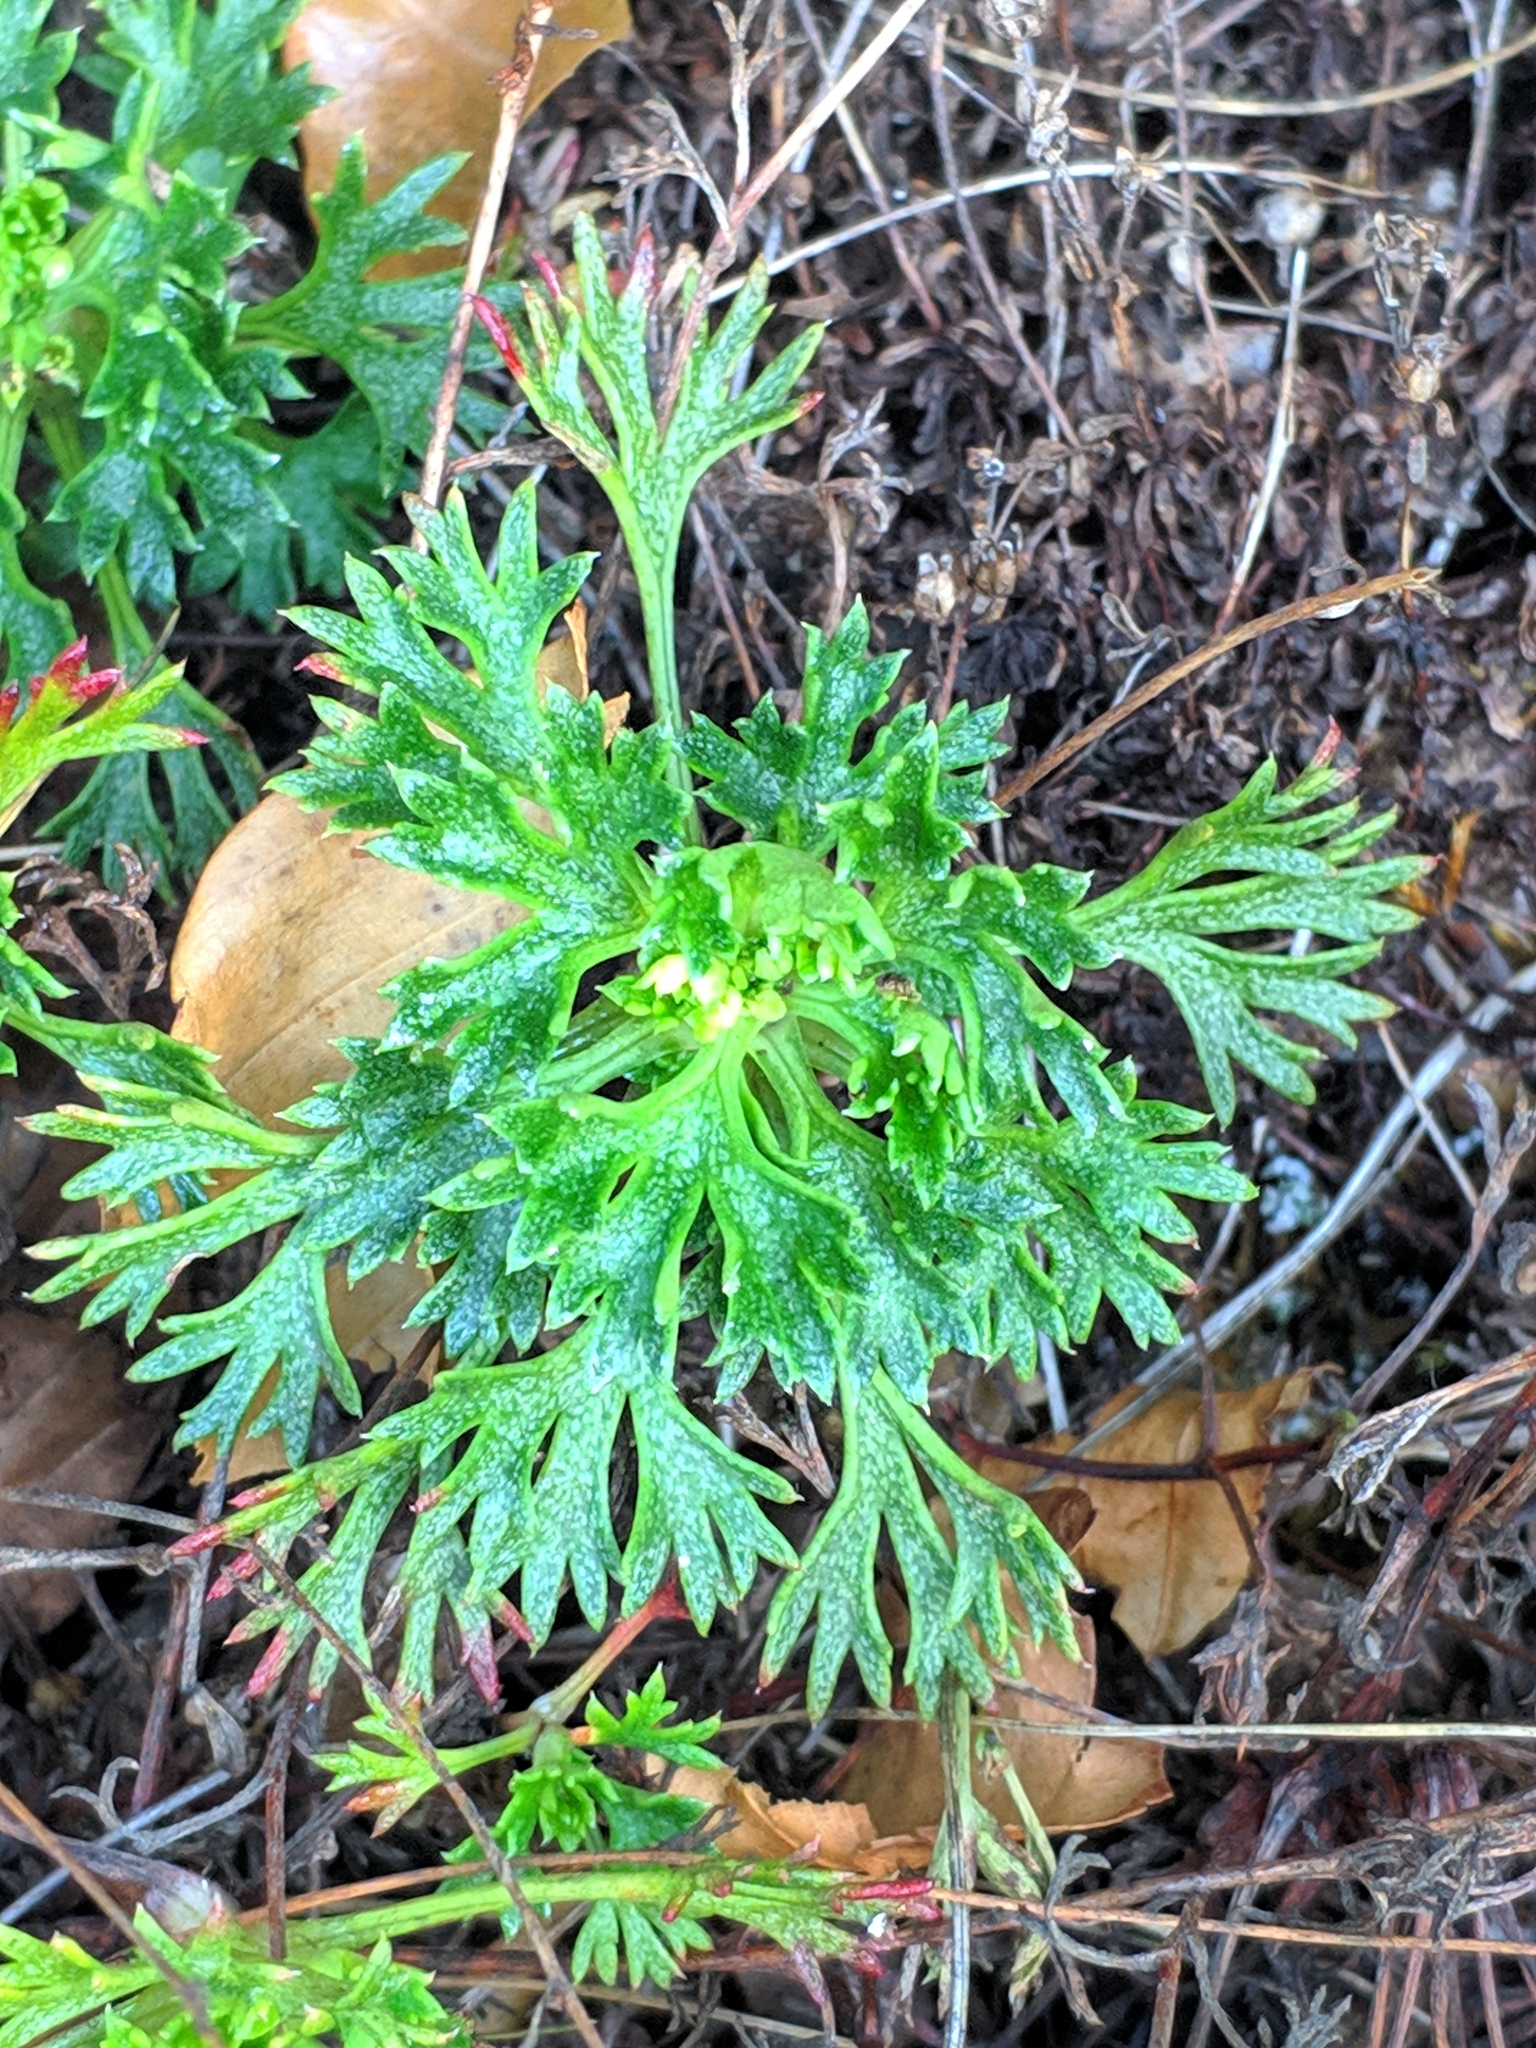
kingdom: Plantae
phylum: Tracheophyta
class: Magnoliopsida
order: Saxifragales
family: Saxifragaceae
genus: Saxifraga
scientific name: Saxifraga trifurcata
